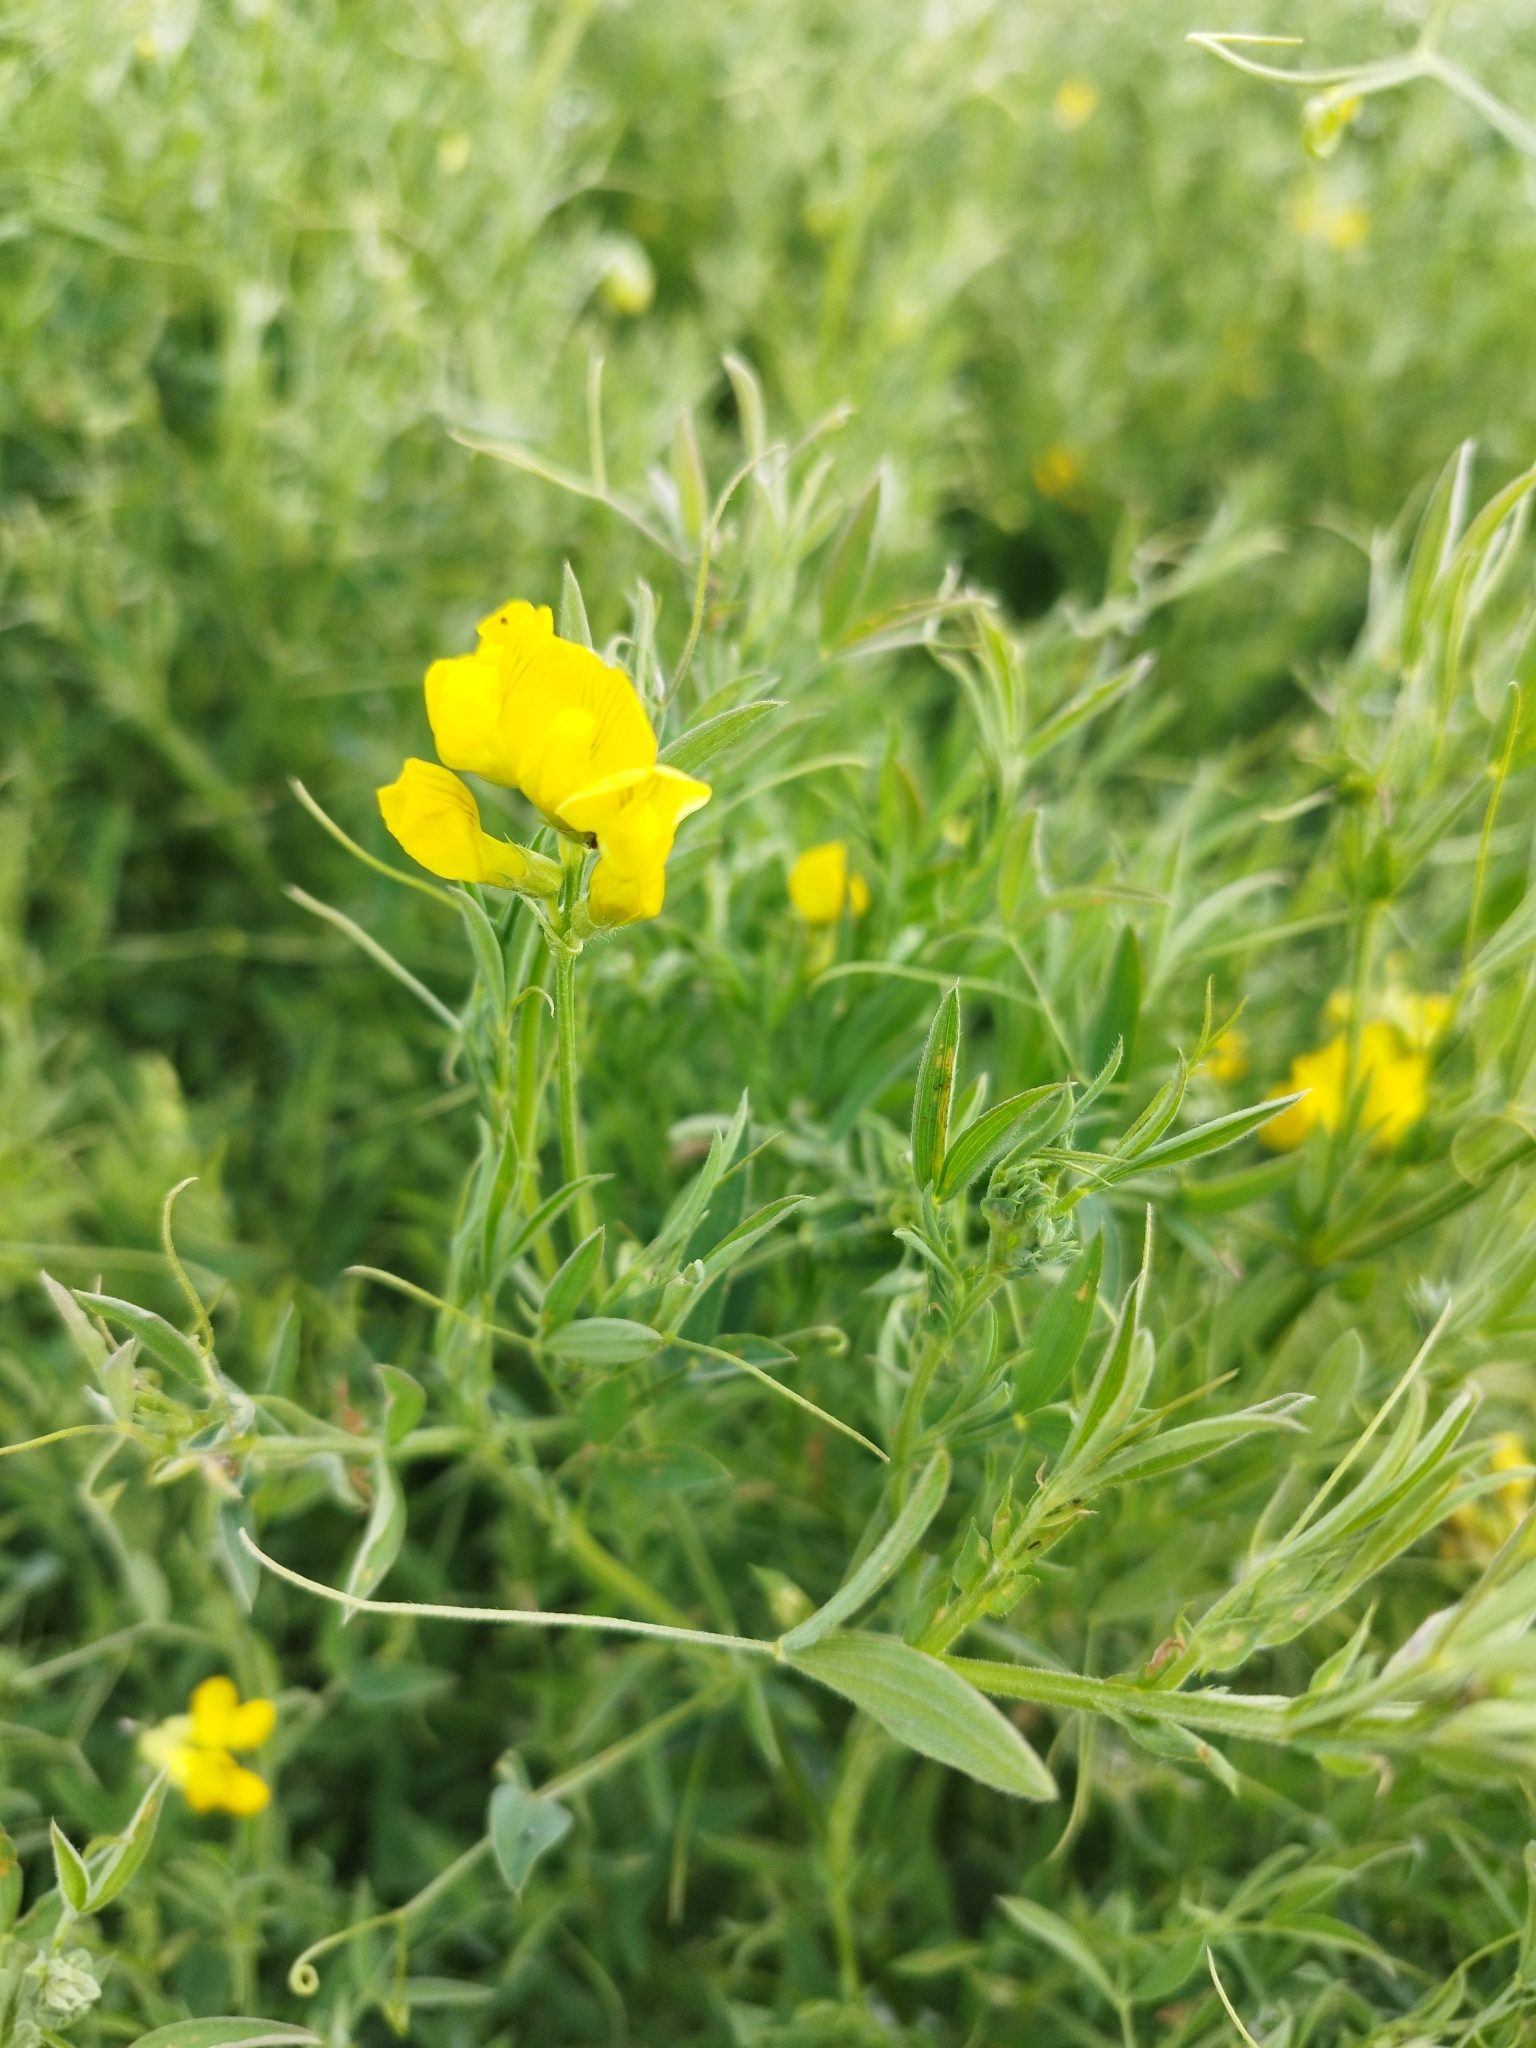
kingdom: Plantae
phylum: Tracheophyta
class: Magnoliopsida
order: Fabales
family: Fabaceae
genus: Lathyrus
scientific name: Lathyrus pratensis
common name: Meadow vetchling
